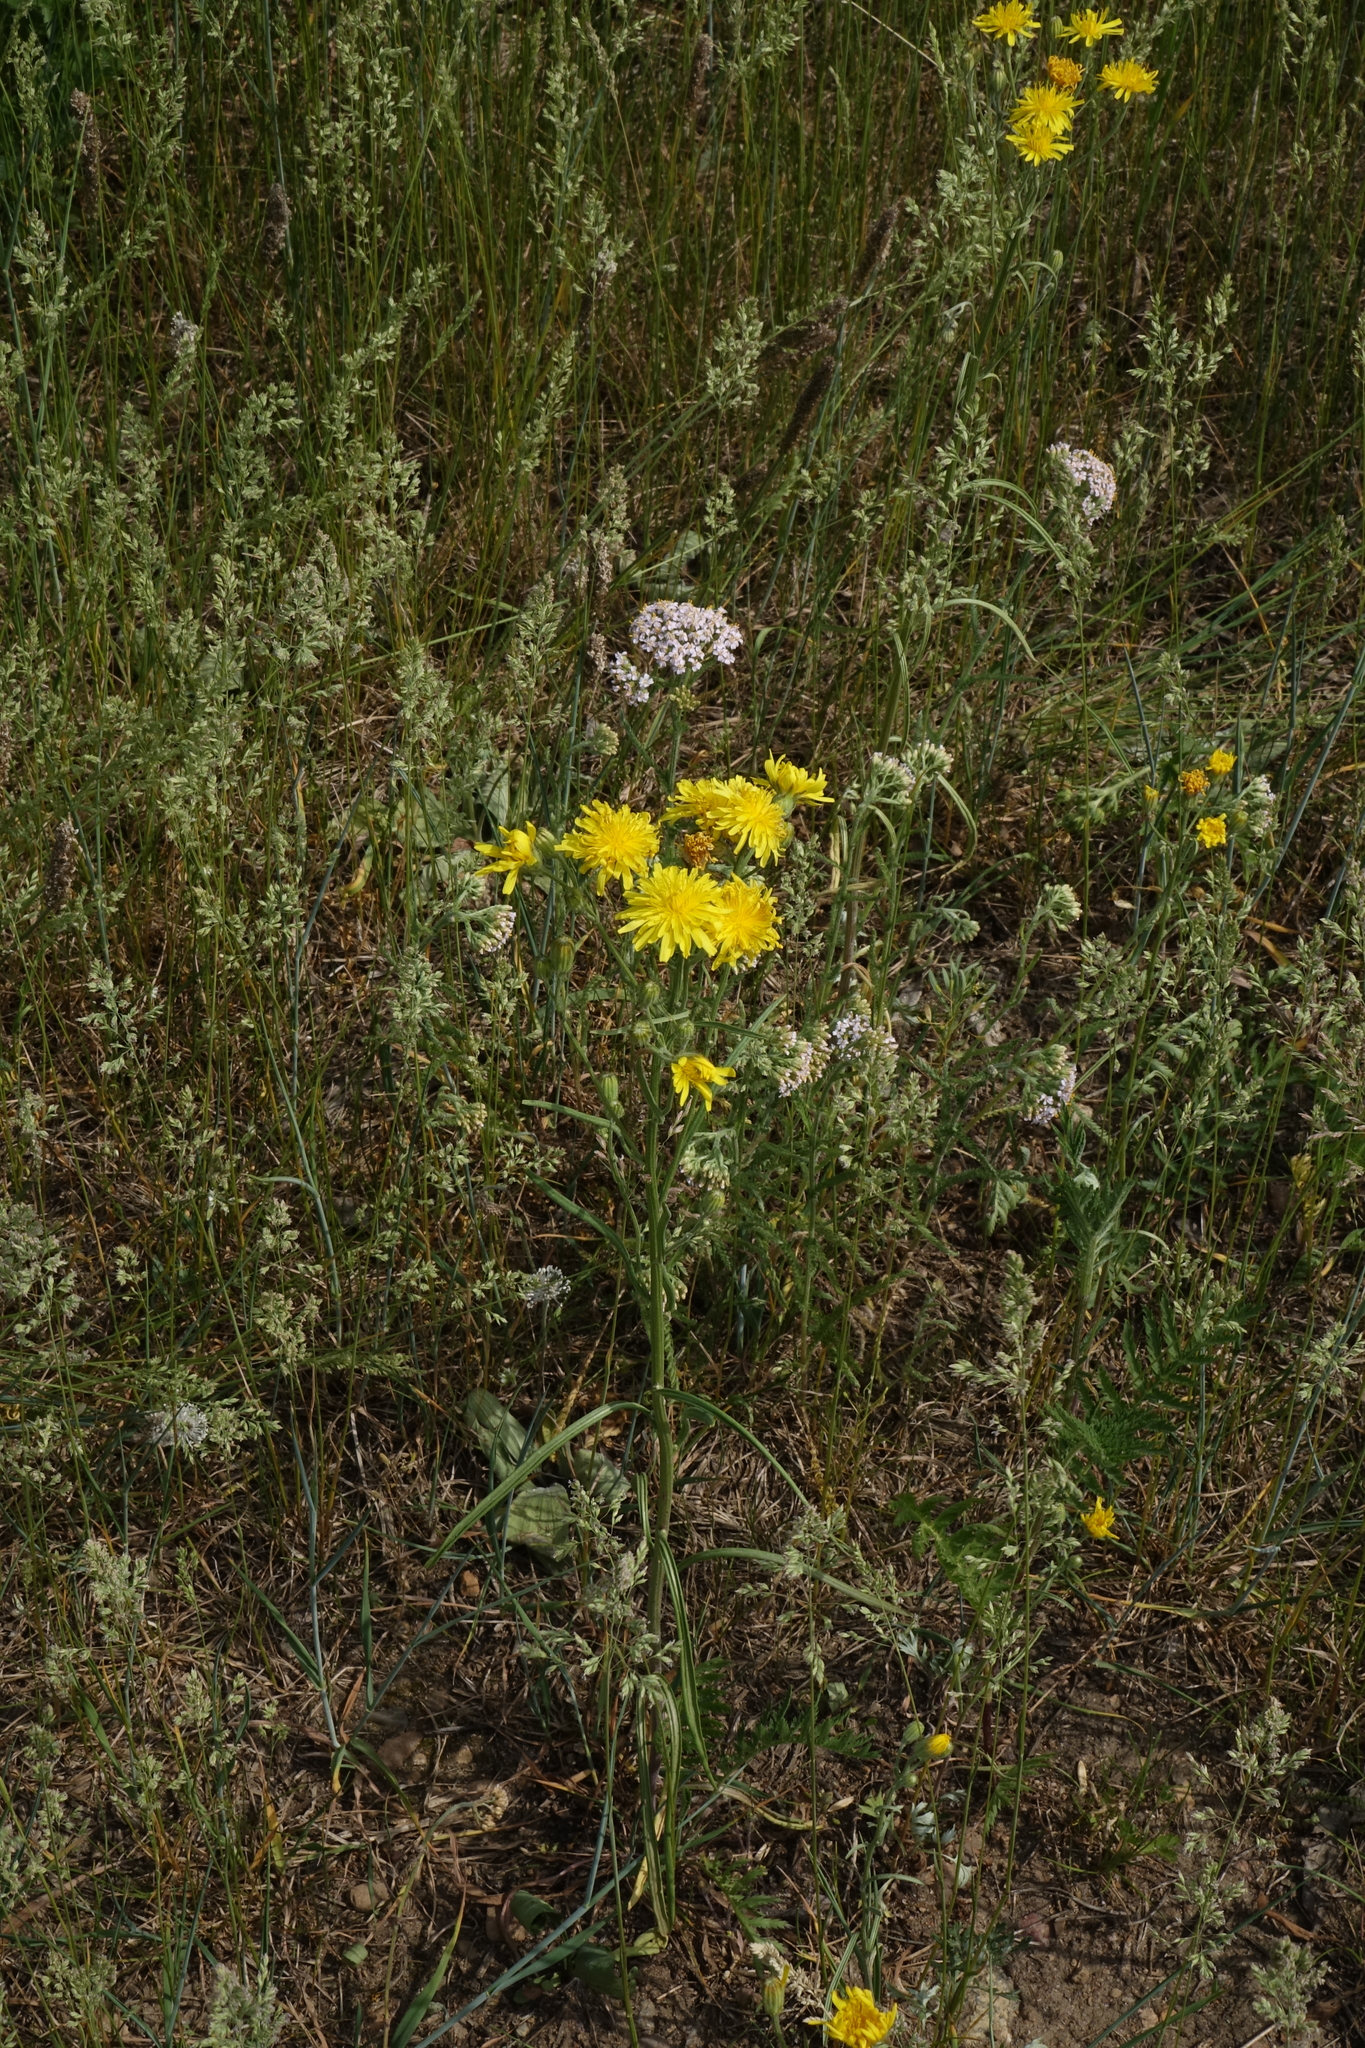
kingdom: Plantae
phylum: Tracheophyta
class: Magnoliopsida
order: Asterales
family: Asteraceae
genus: Crepis
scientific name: Crepis tectorum
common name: Narrow-leaved hawk's-beard
